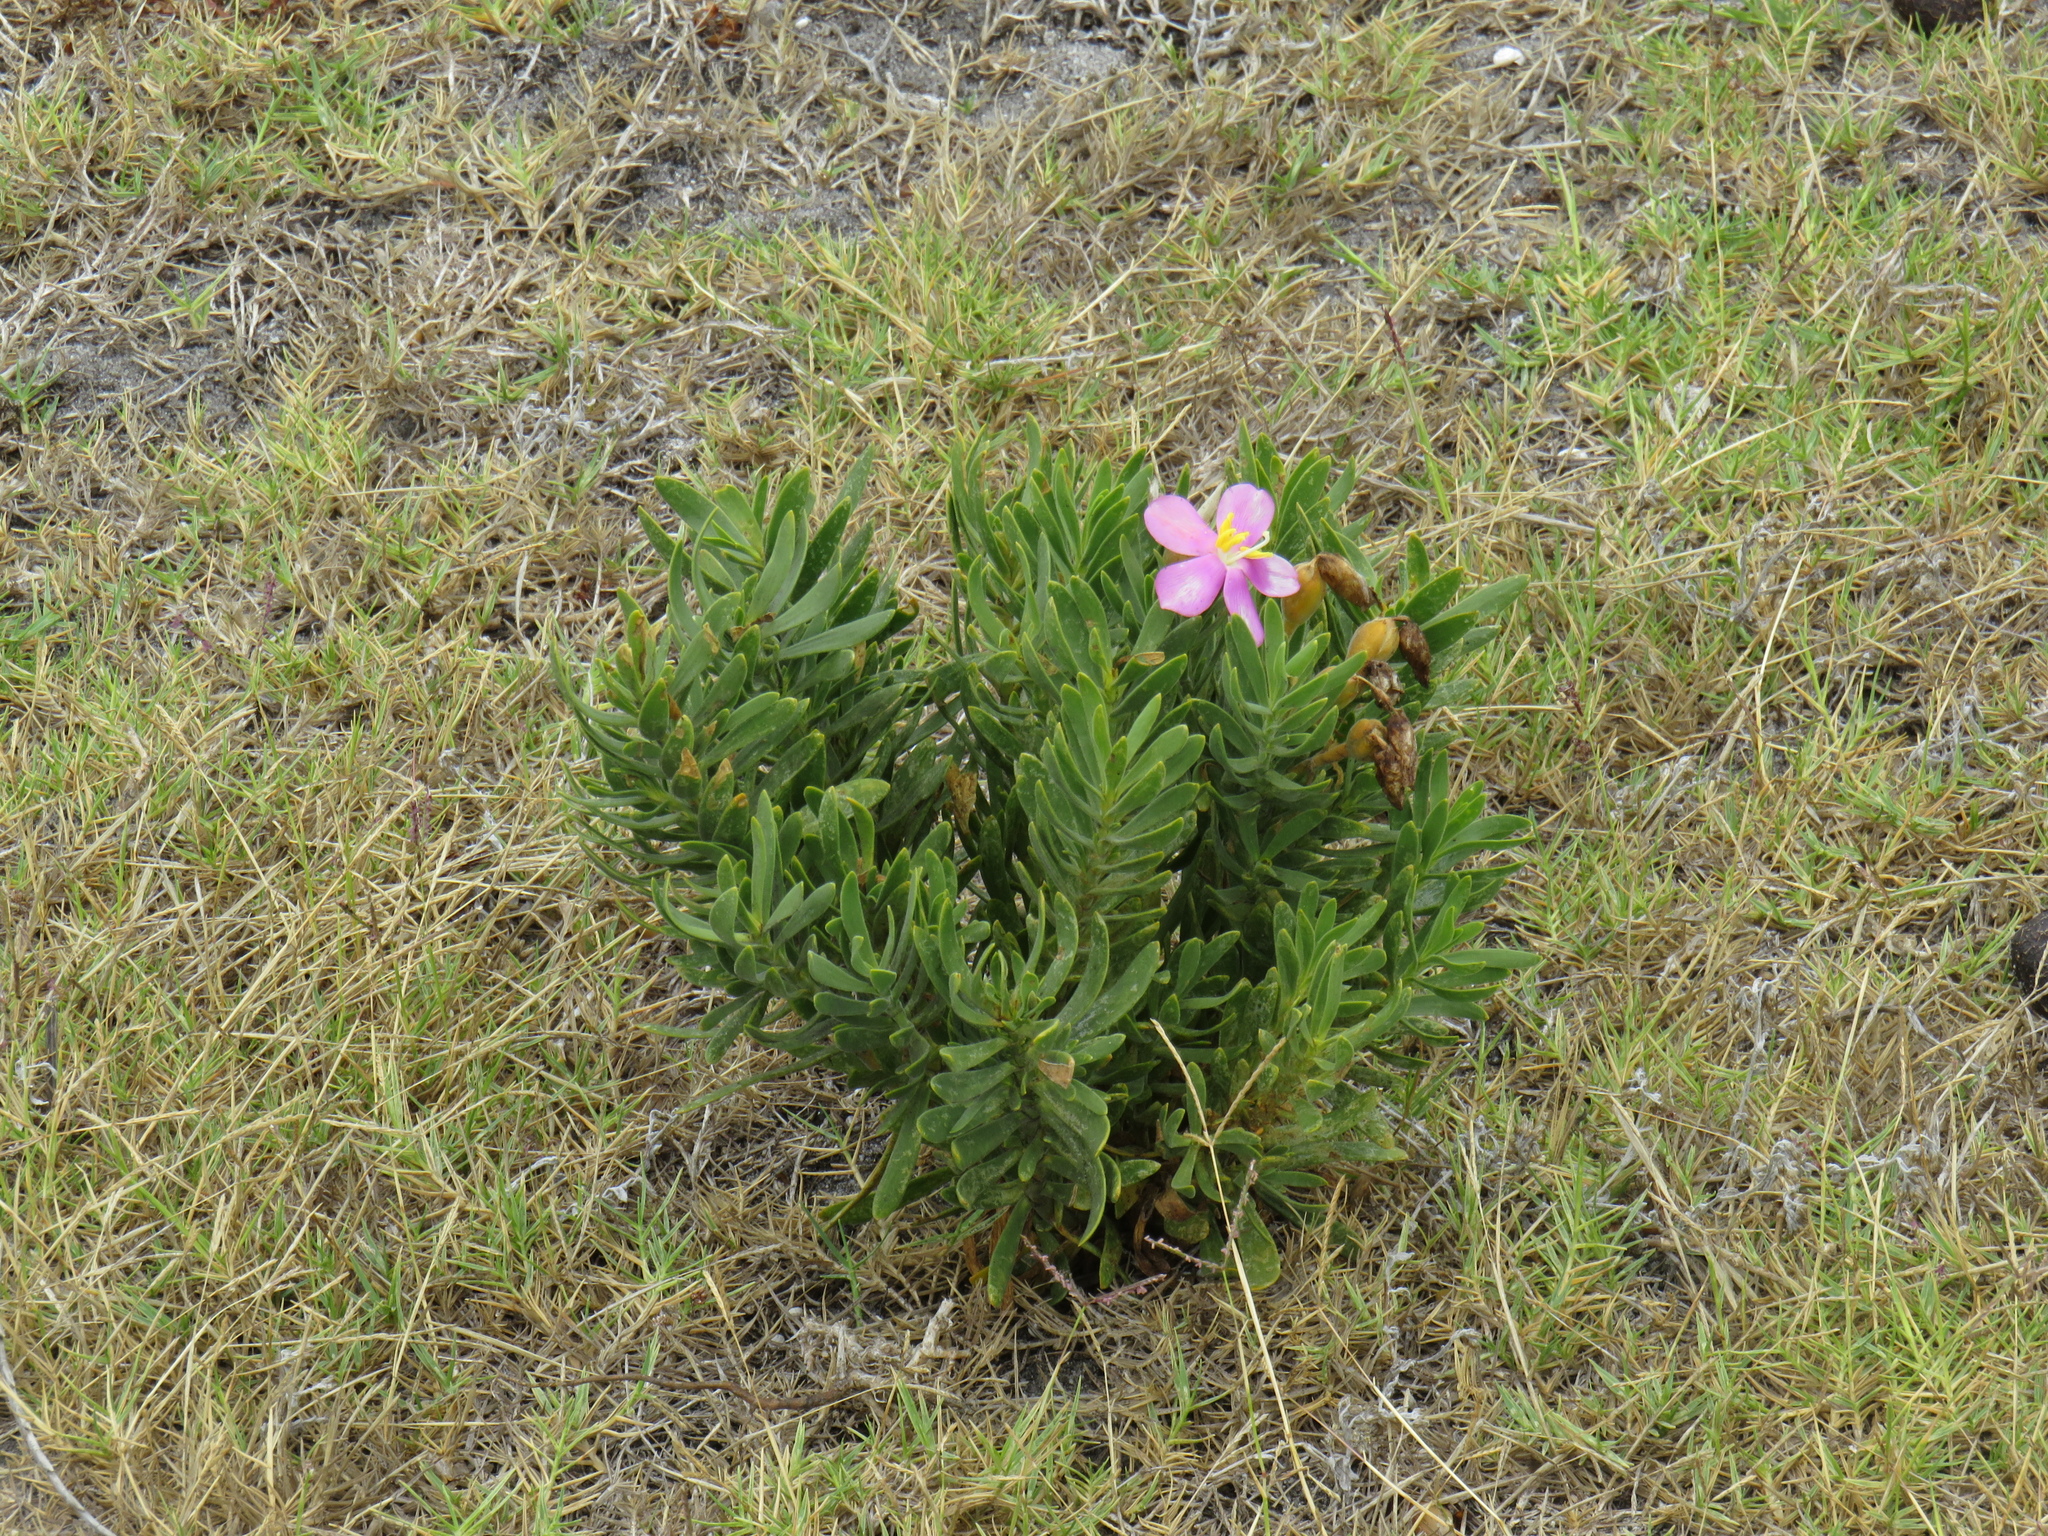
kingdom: Plantae
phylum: Tracheophyta
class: Magnoliopsida
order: Gentianales
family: Gentianaceae
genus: Orphium
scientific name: Orphium frutescens
